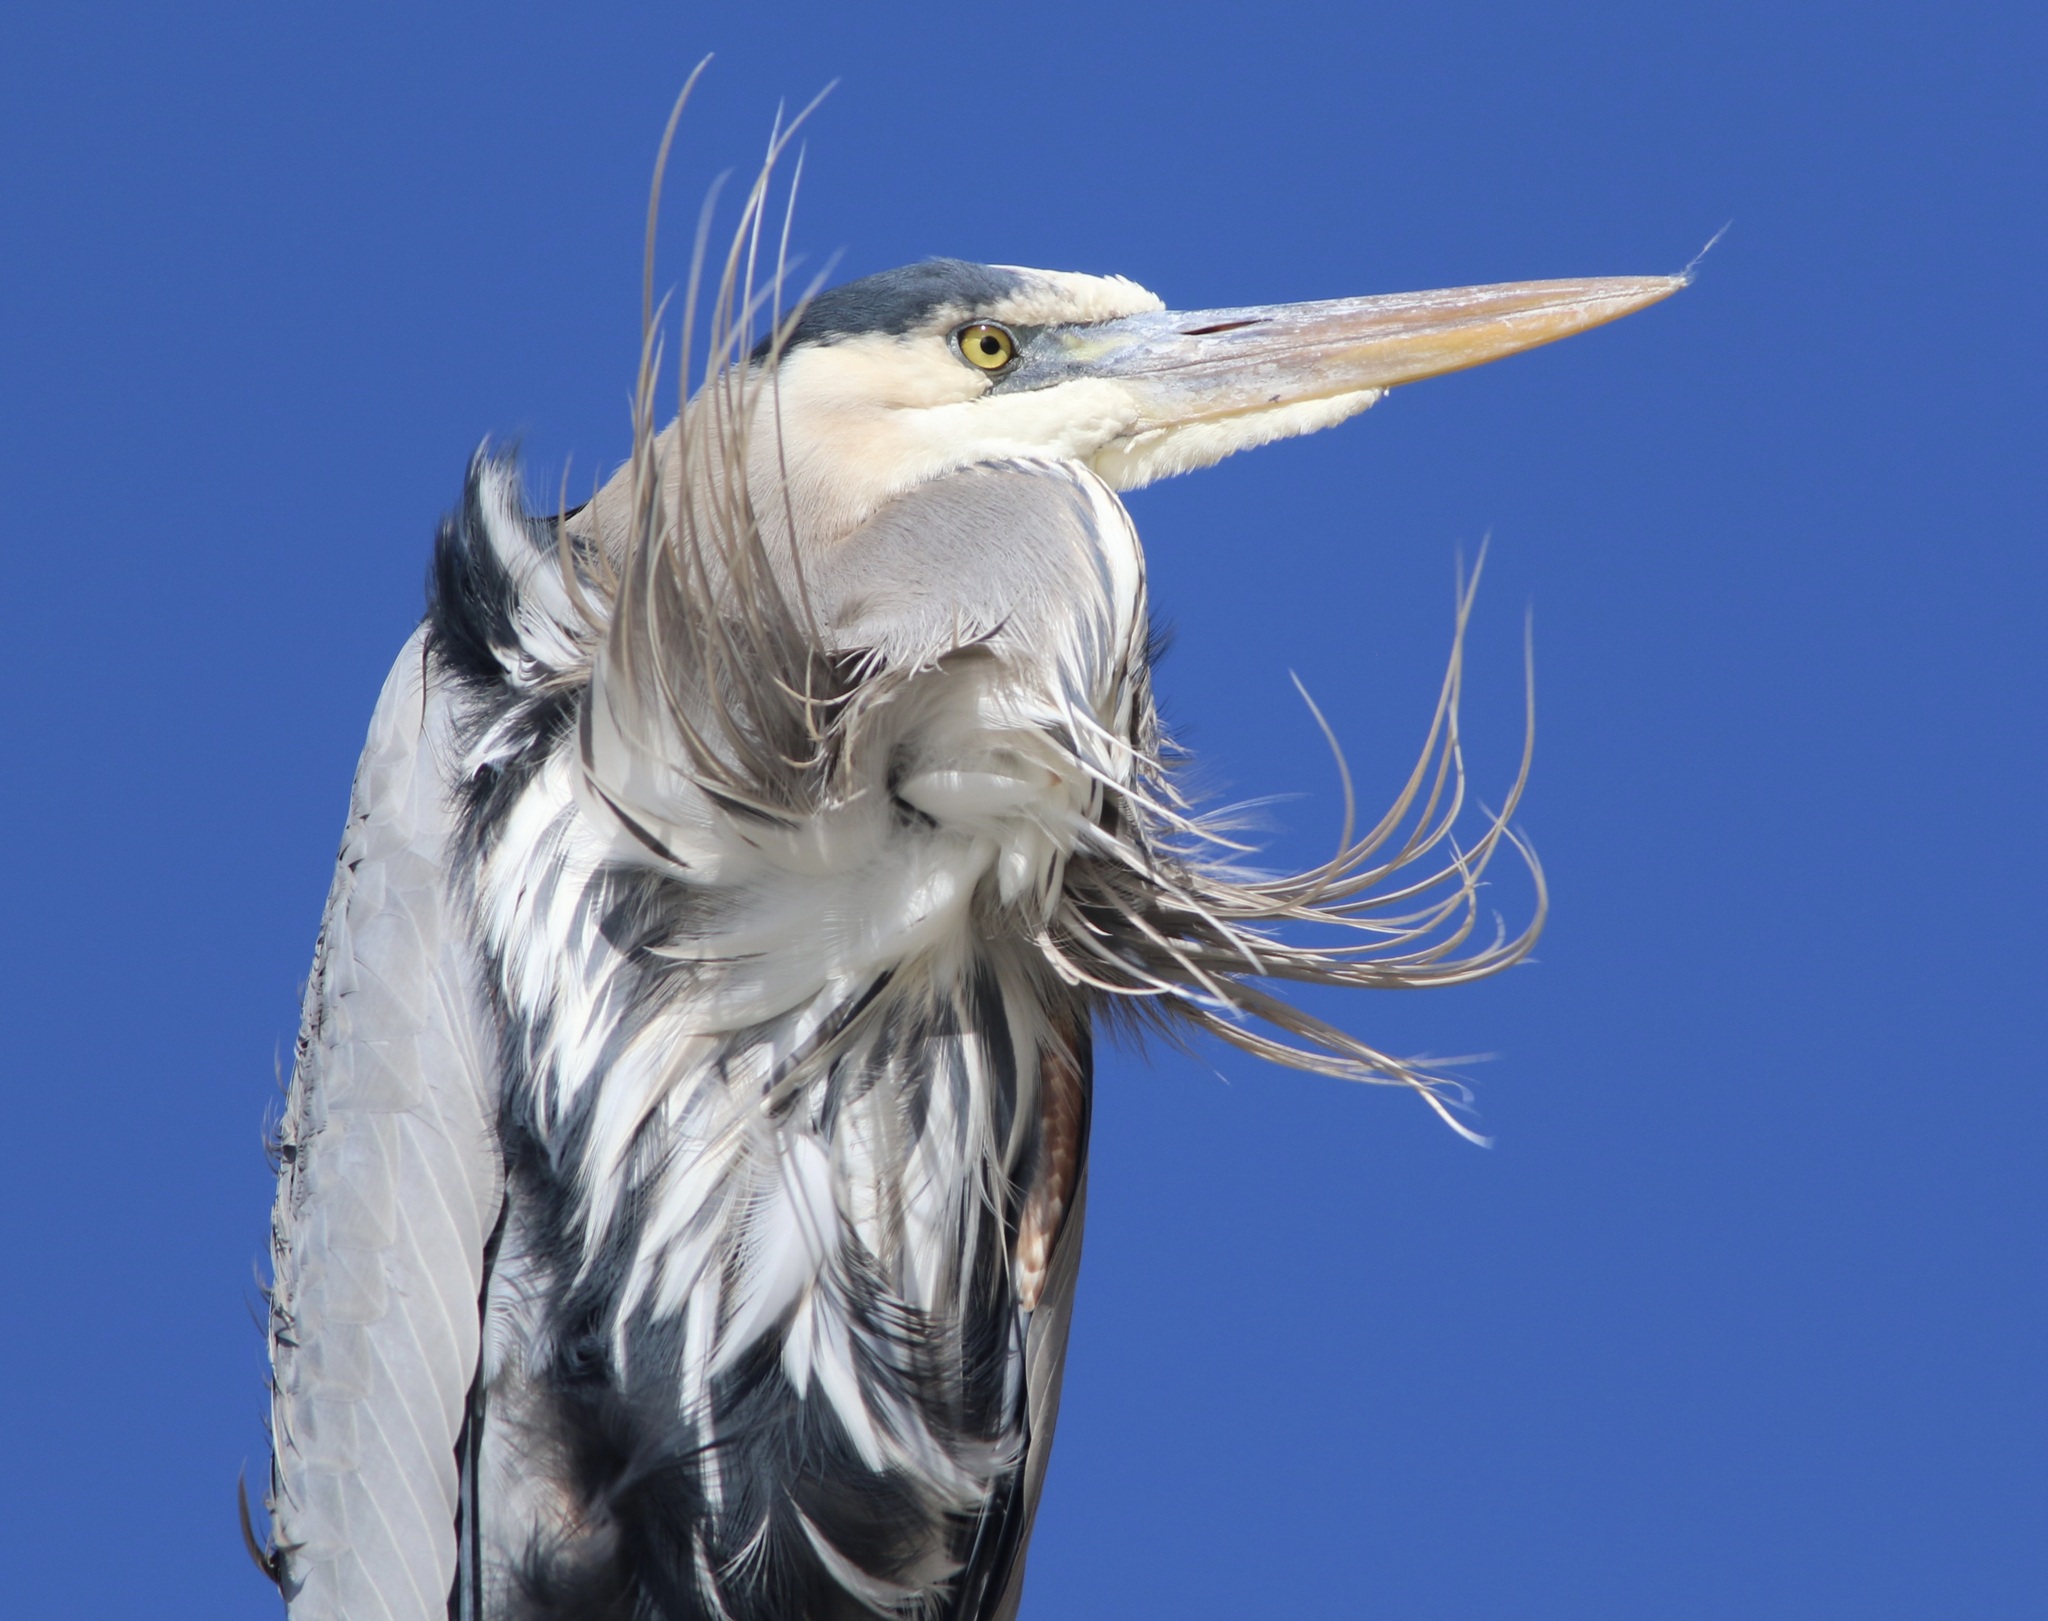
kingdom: Animalia
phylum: Chordata
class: Aves
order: Pelecaniformes
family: Ardeidae
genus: Ardea
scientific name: Ardea herodias
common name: Great blue heron
